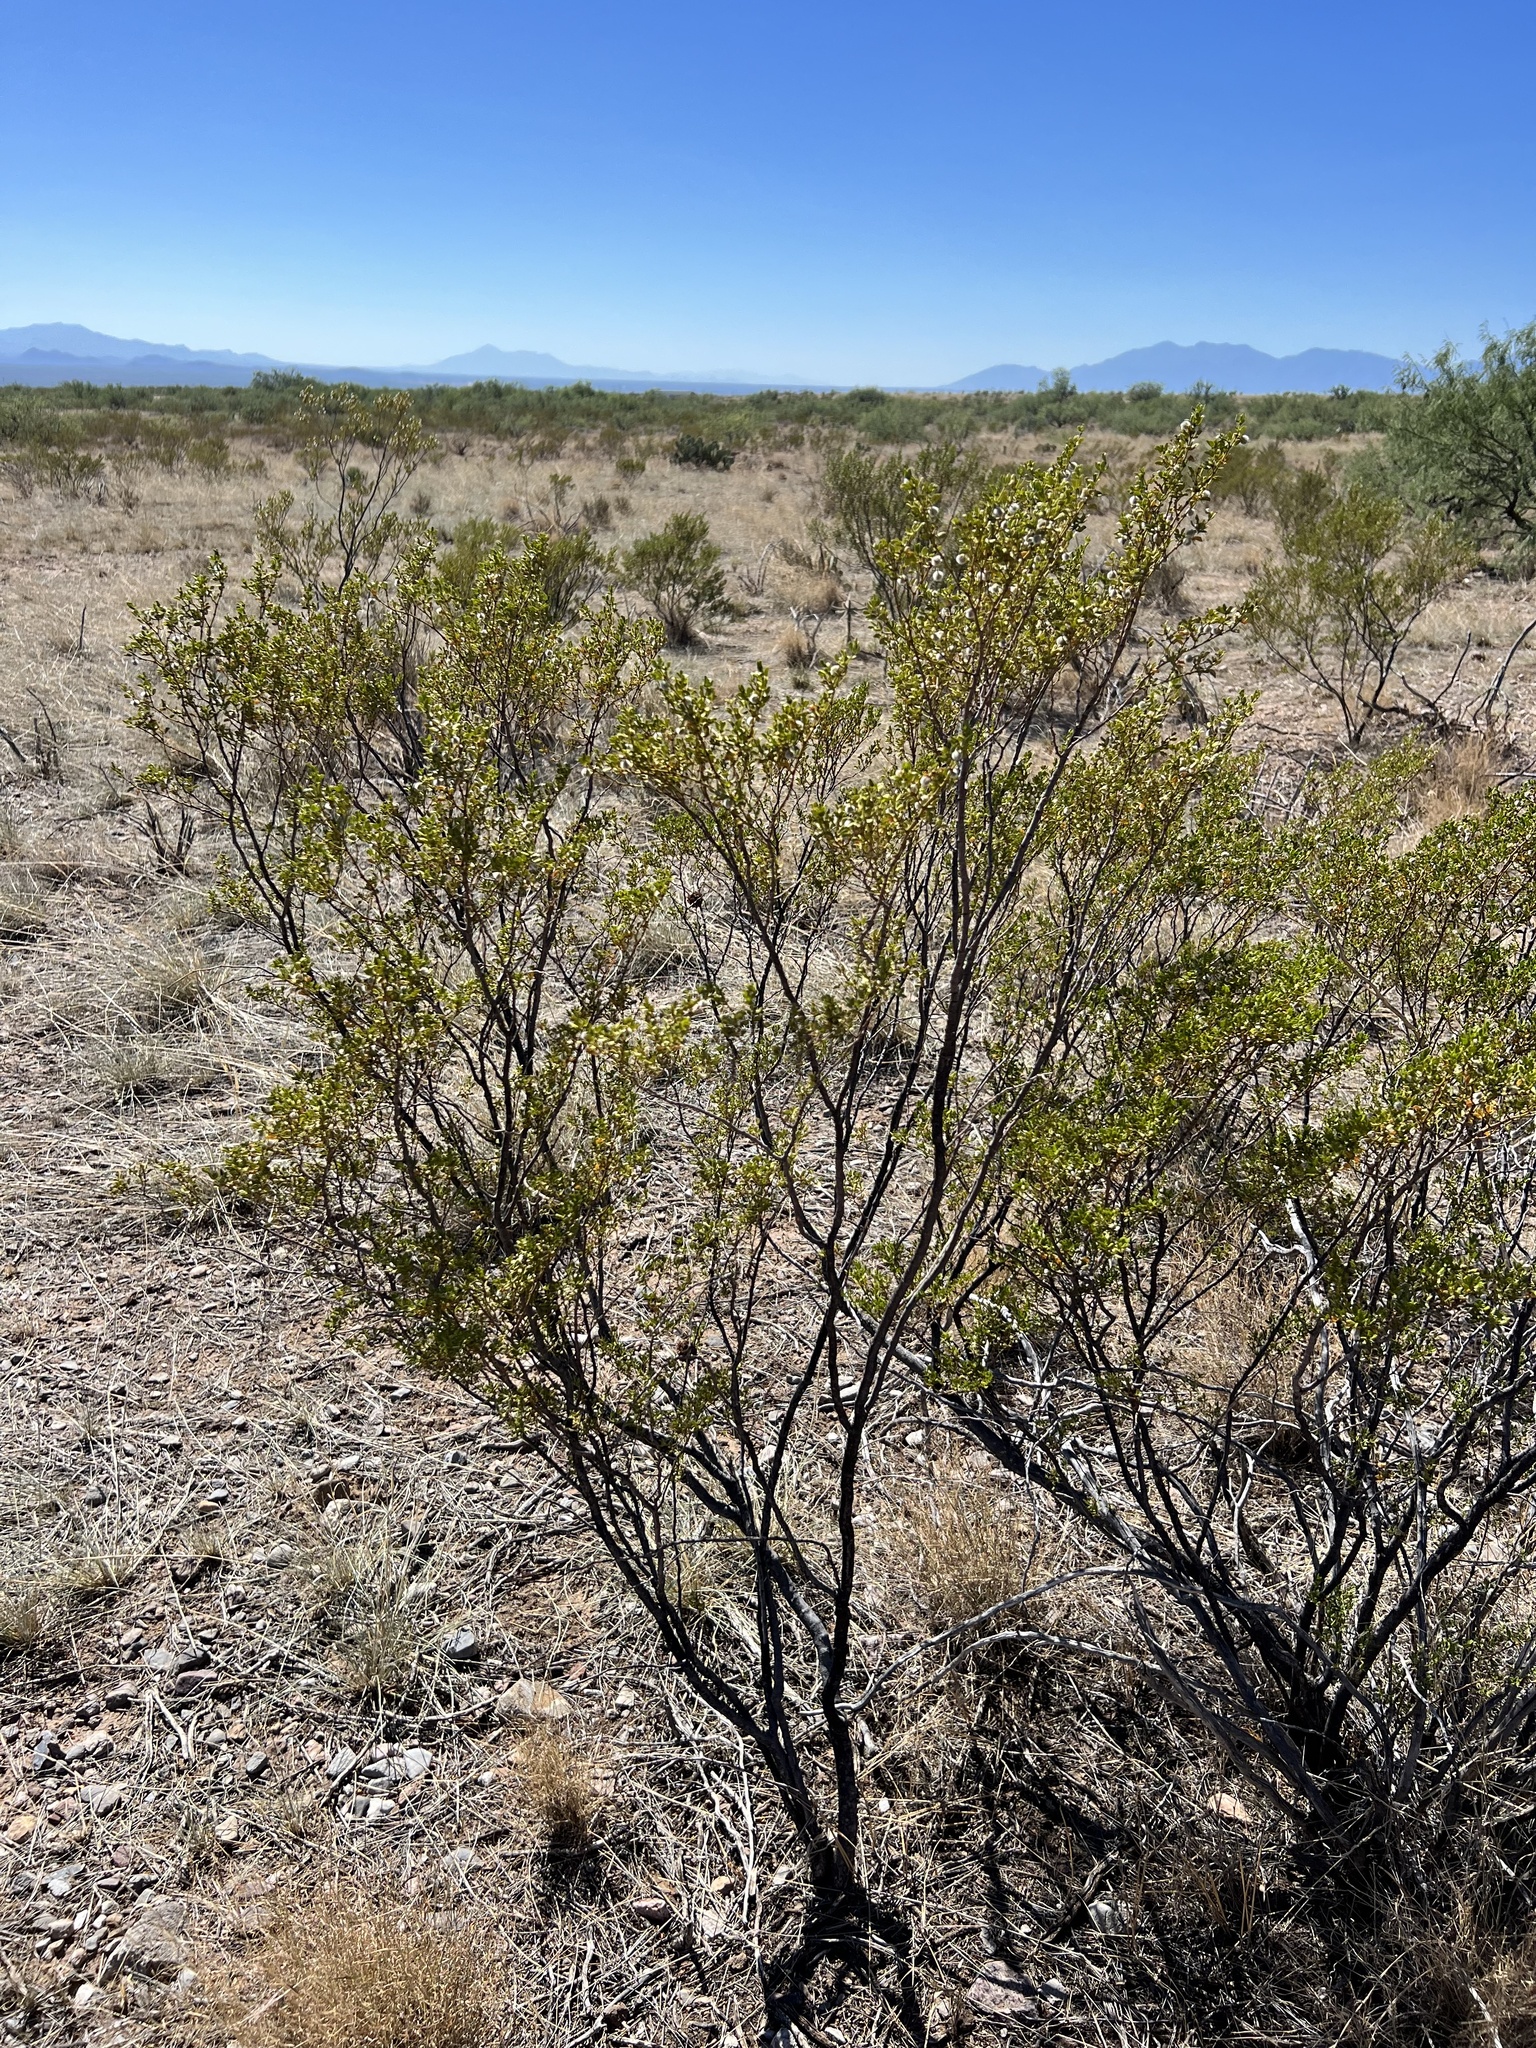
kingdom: Plantae
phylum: Tracheophyta
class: Magnoliopsida
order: Zygophyllales
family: Zygophyllaceae
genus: Larrea
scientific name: Larrea tridentata
